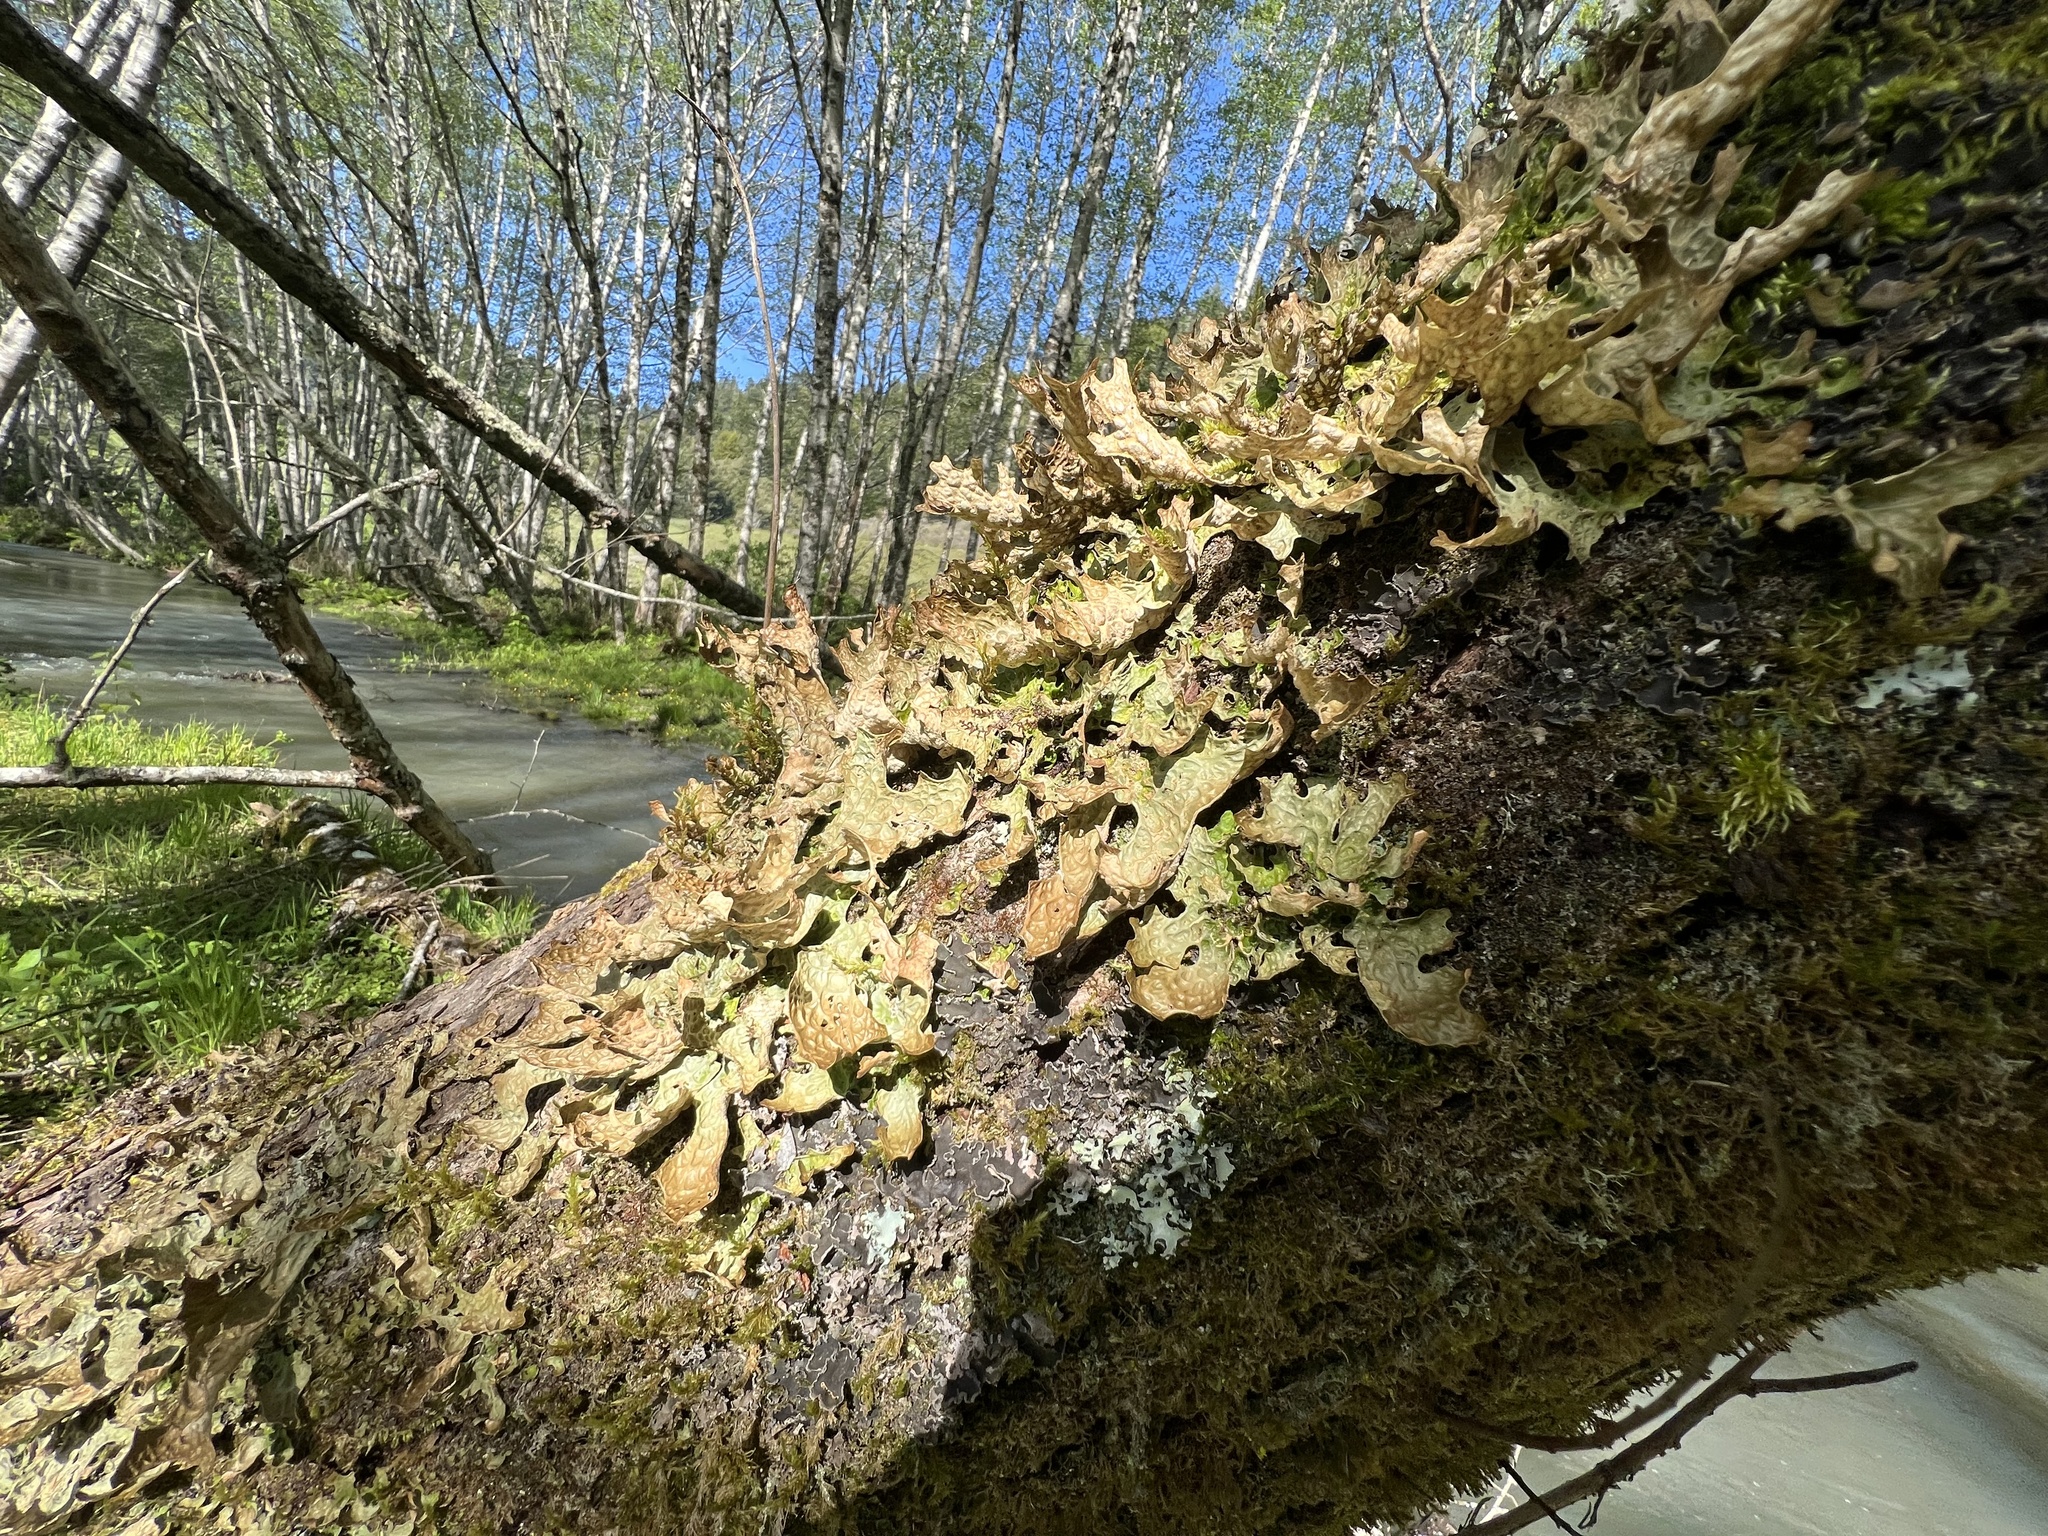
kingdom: Fungi
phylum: Ascomycota
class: Lecanoromycetes
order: Peltigerales
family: Lobariaceae
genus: Lobaria
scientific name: Lobaria pulmonaria
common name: Lungwort
